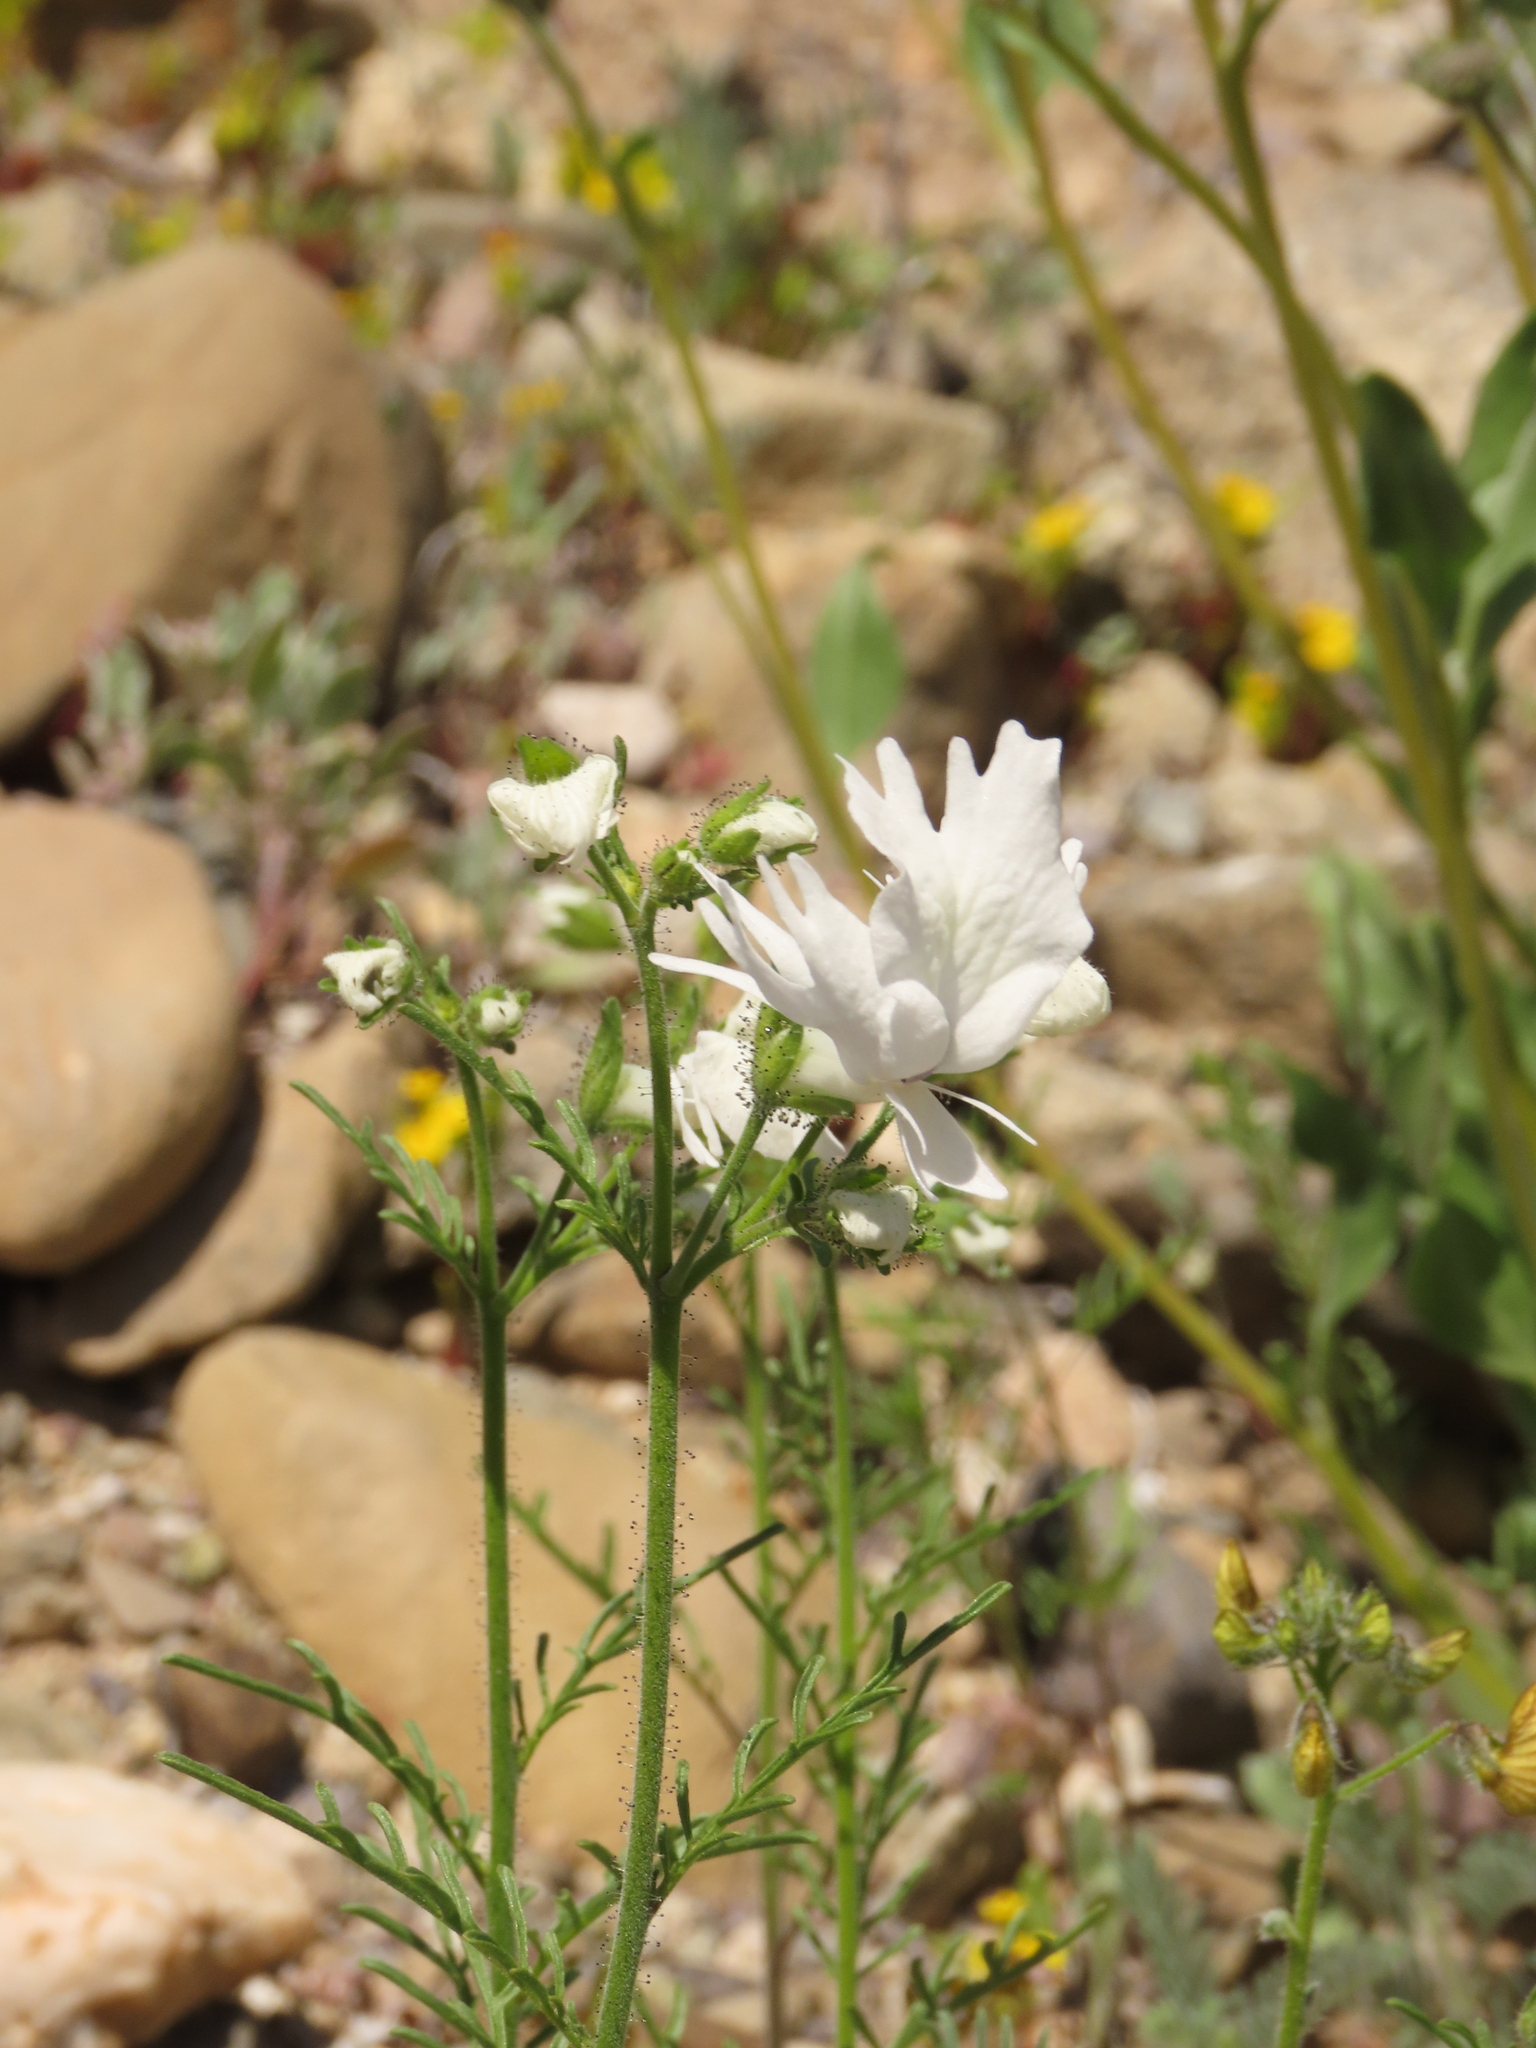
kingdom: Plantae
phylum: Tracheophyta
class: Magnoliopsida
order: Solanales
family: Solanaceae
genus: Schizanthus
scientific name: Schizanthus candidus
